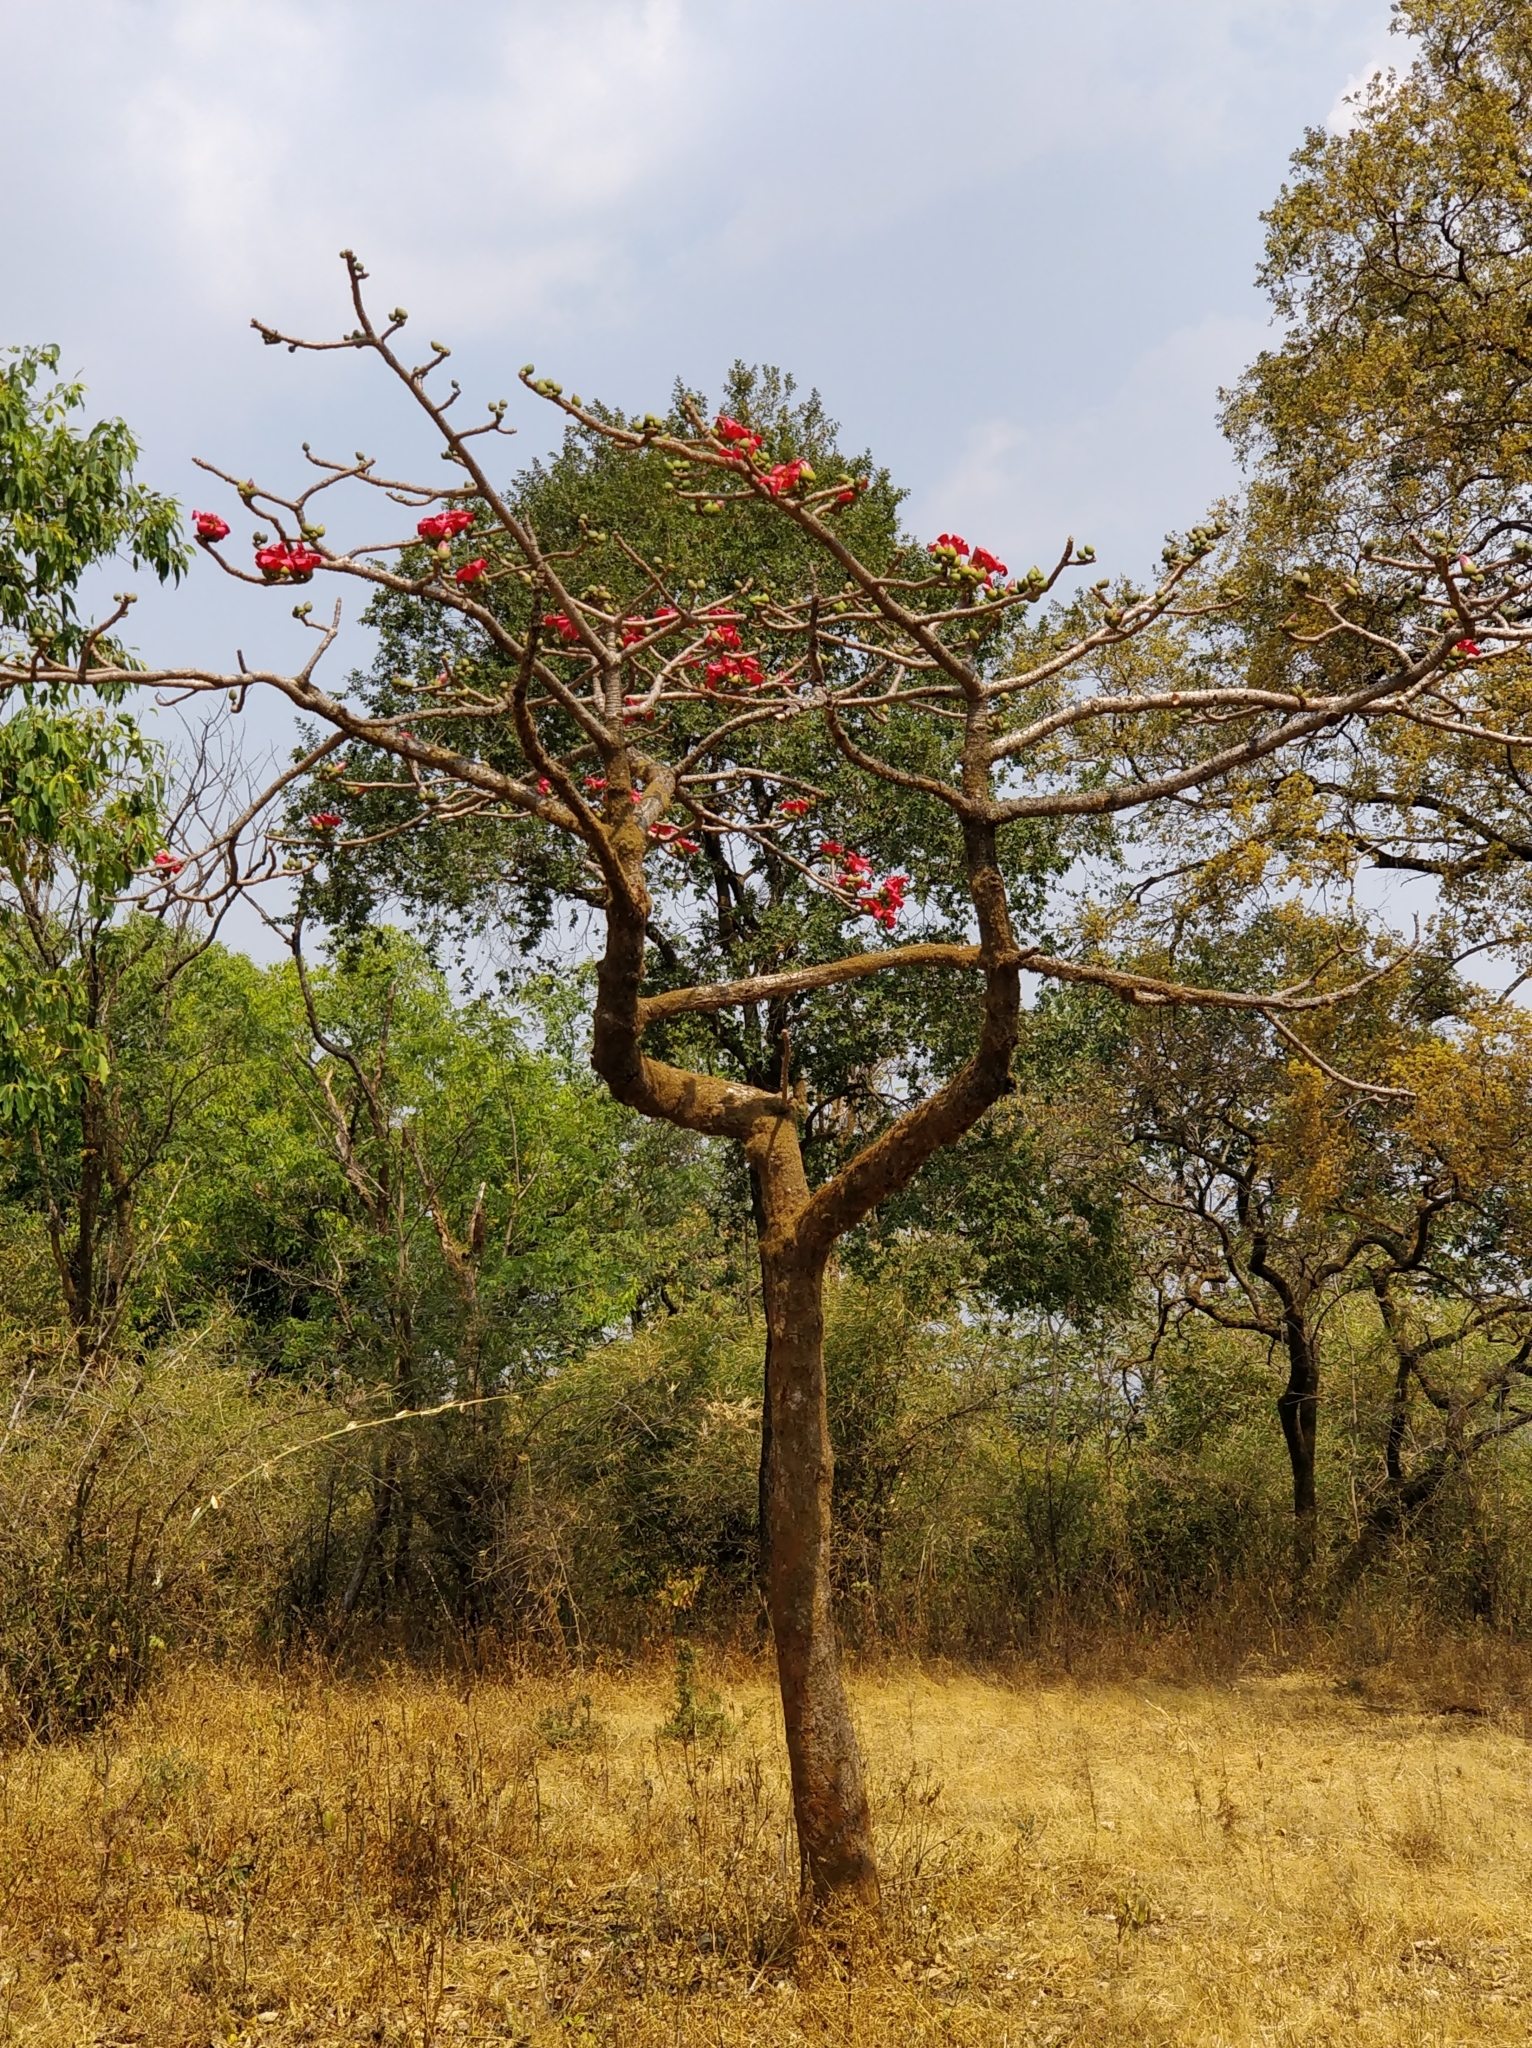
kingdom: Plantae
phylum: Tracheophyta
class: Magnoliopsida
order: Malvales
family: Malvaceae
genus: Bombax
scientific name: Bombax ceiba
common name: Northern-cottonwood
